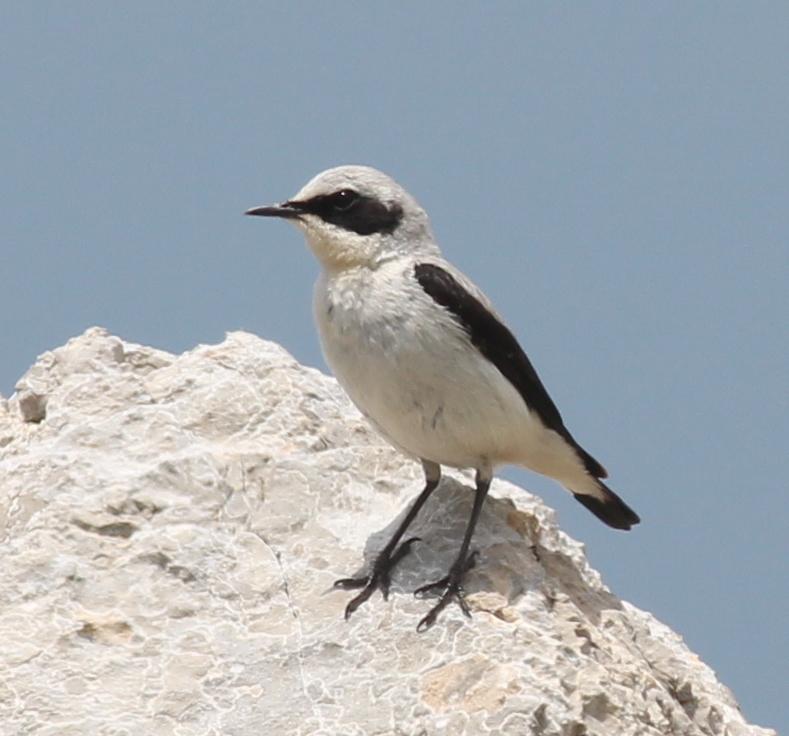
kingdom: Animalia
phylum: Chordata
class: Aves
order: Passeriformes
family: Muscicapidae
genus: Oenanthe
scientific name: Oenanthe oenanthe
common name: Northern wheatear
